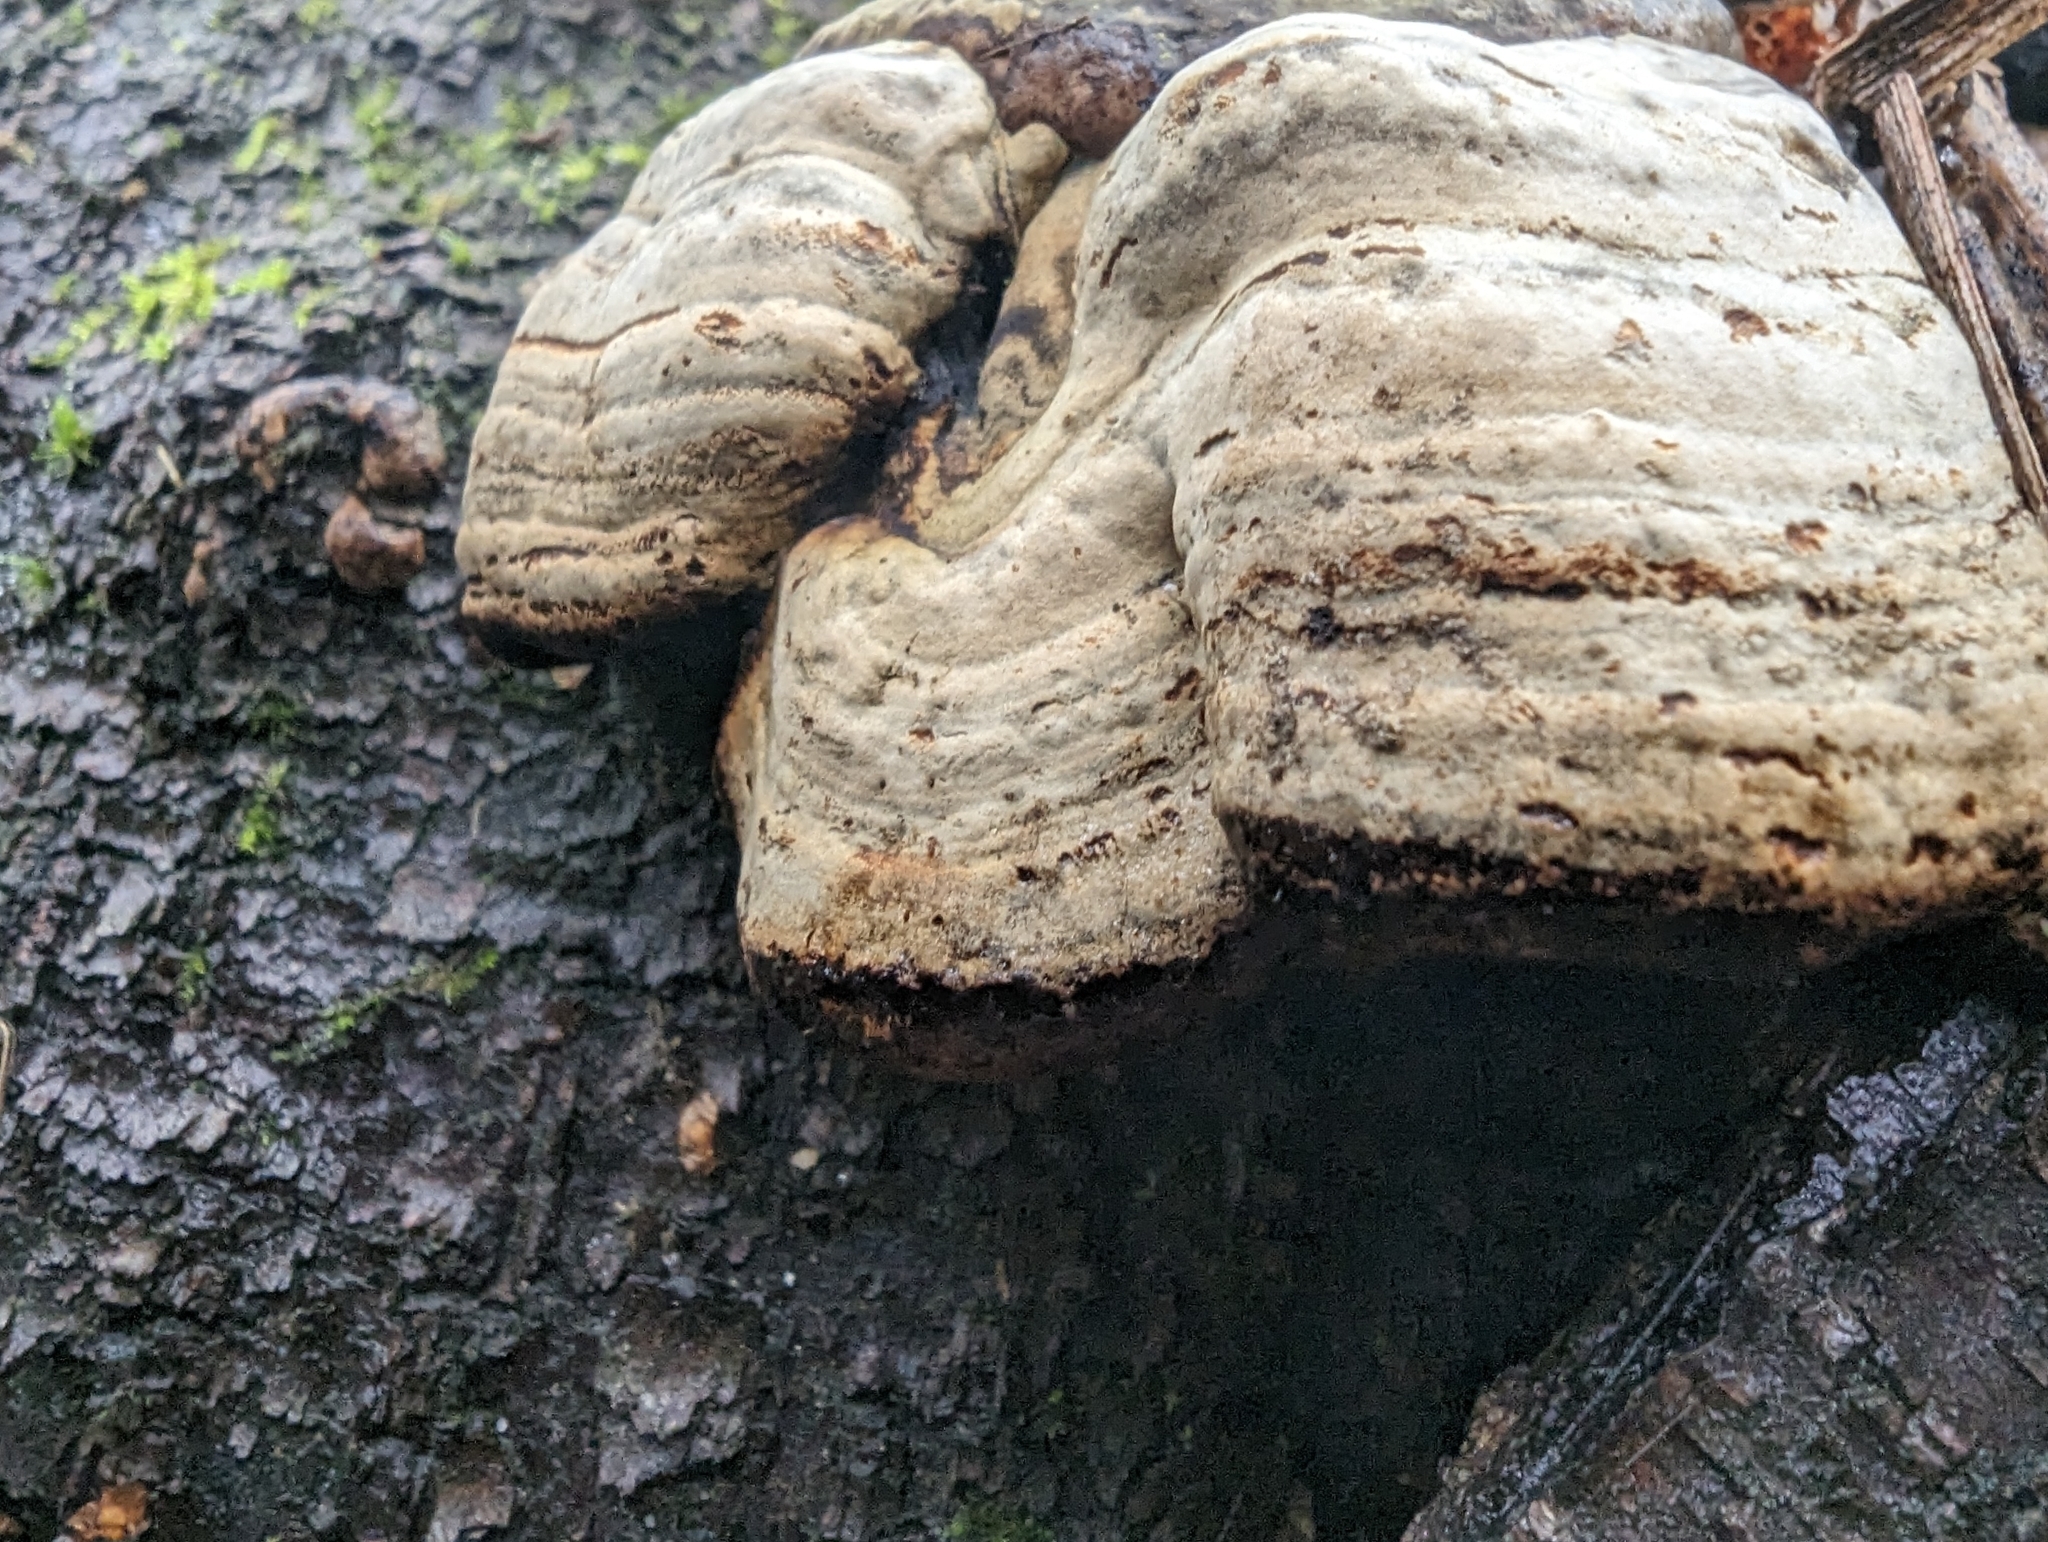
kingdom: Fungi
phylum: Basidiomycota
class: Agaricomycetes
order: Polyporales
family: Polyporaceae
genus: Fomes
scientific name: Fomes fomentarius
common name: Hoof fungus
